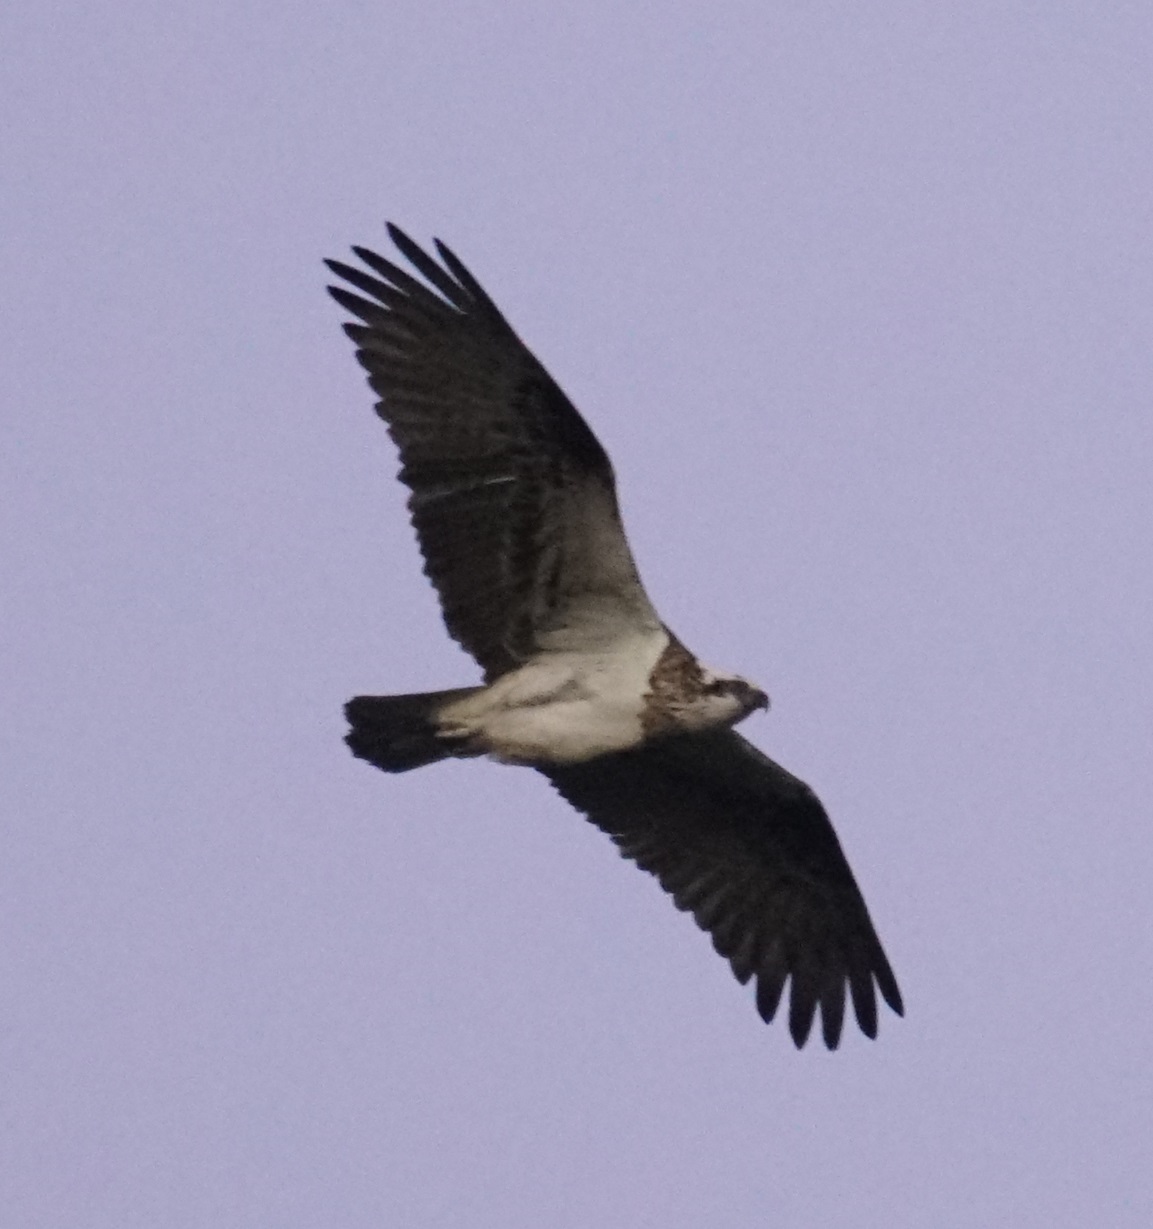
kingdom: Animalia
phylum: Chordata
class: Aves
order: Accipitriformes
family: Pandionidae
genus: Pandion
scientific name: Pandion haliaetus
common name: Osprey
